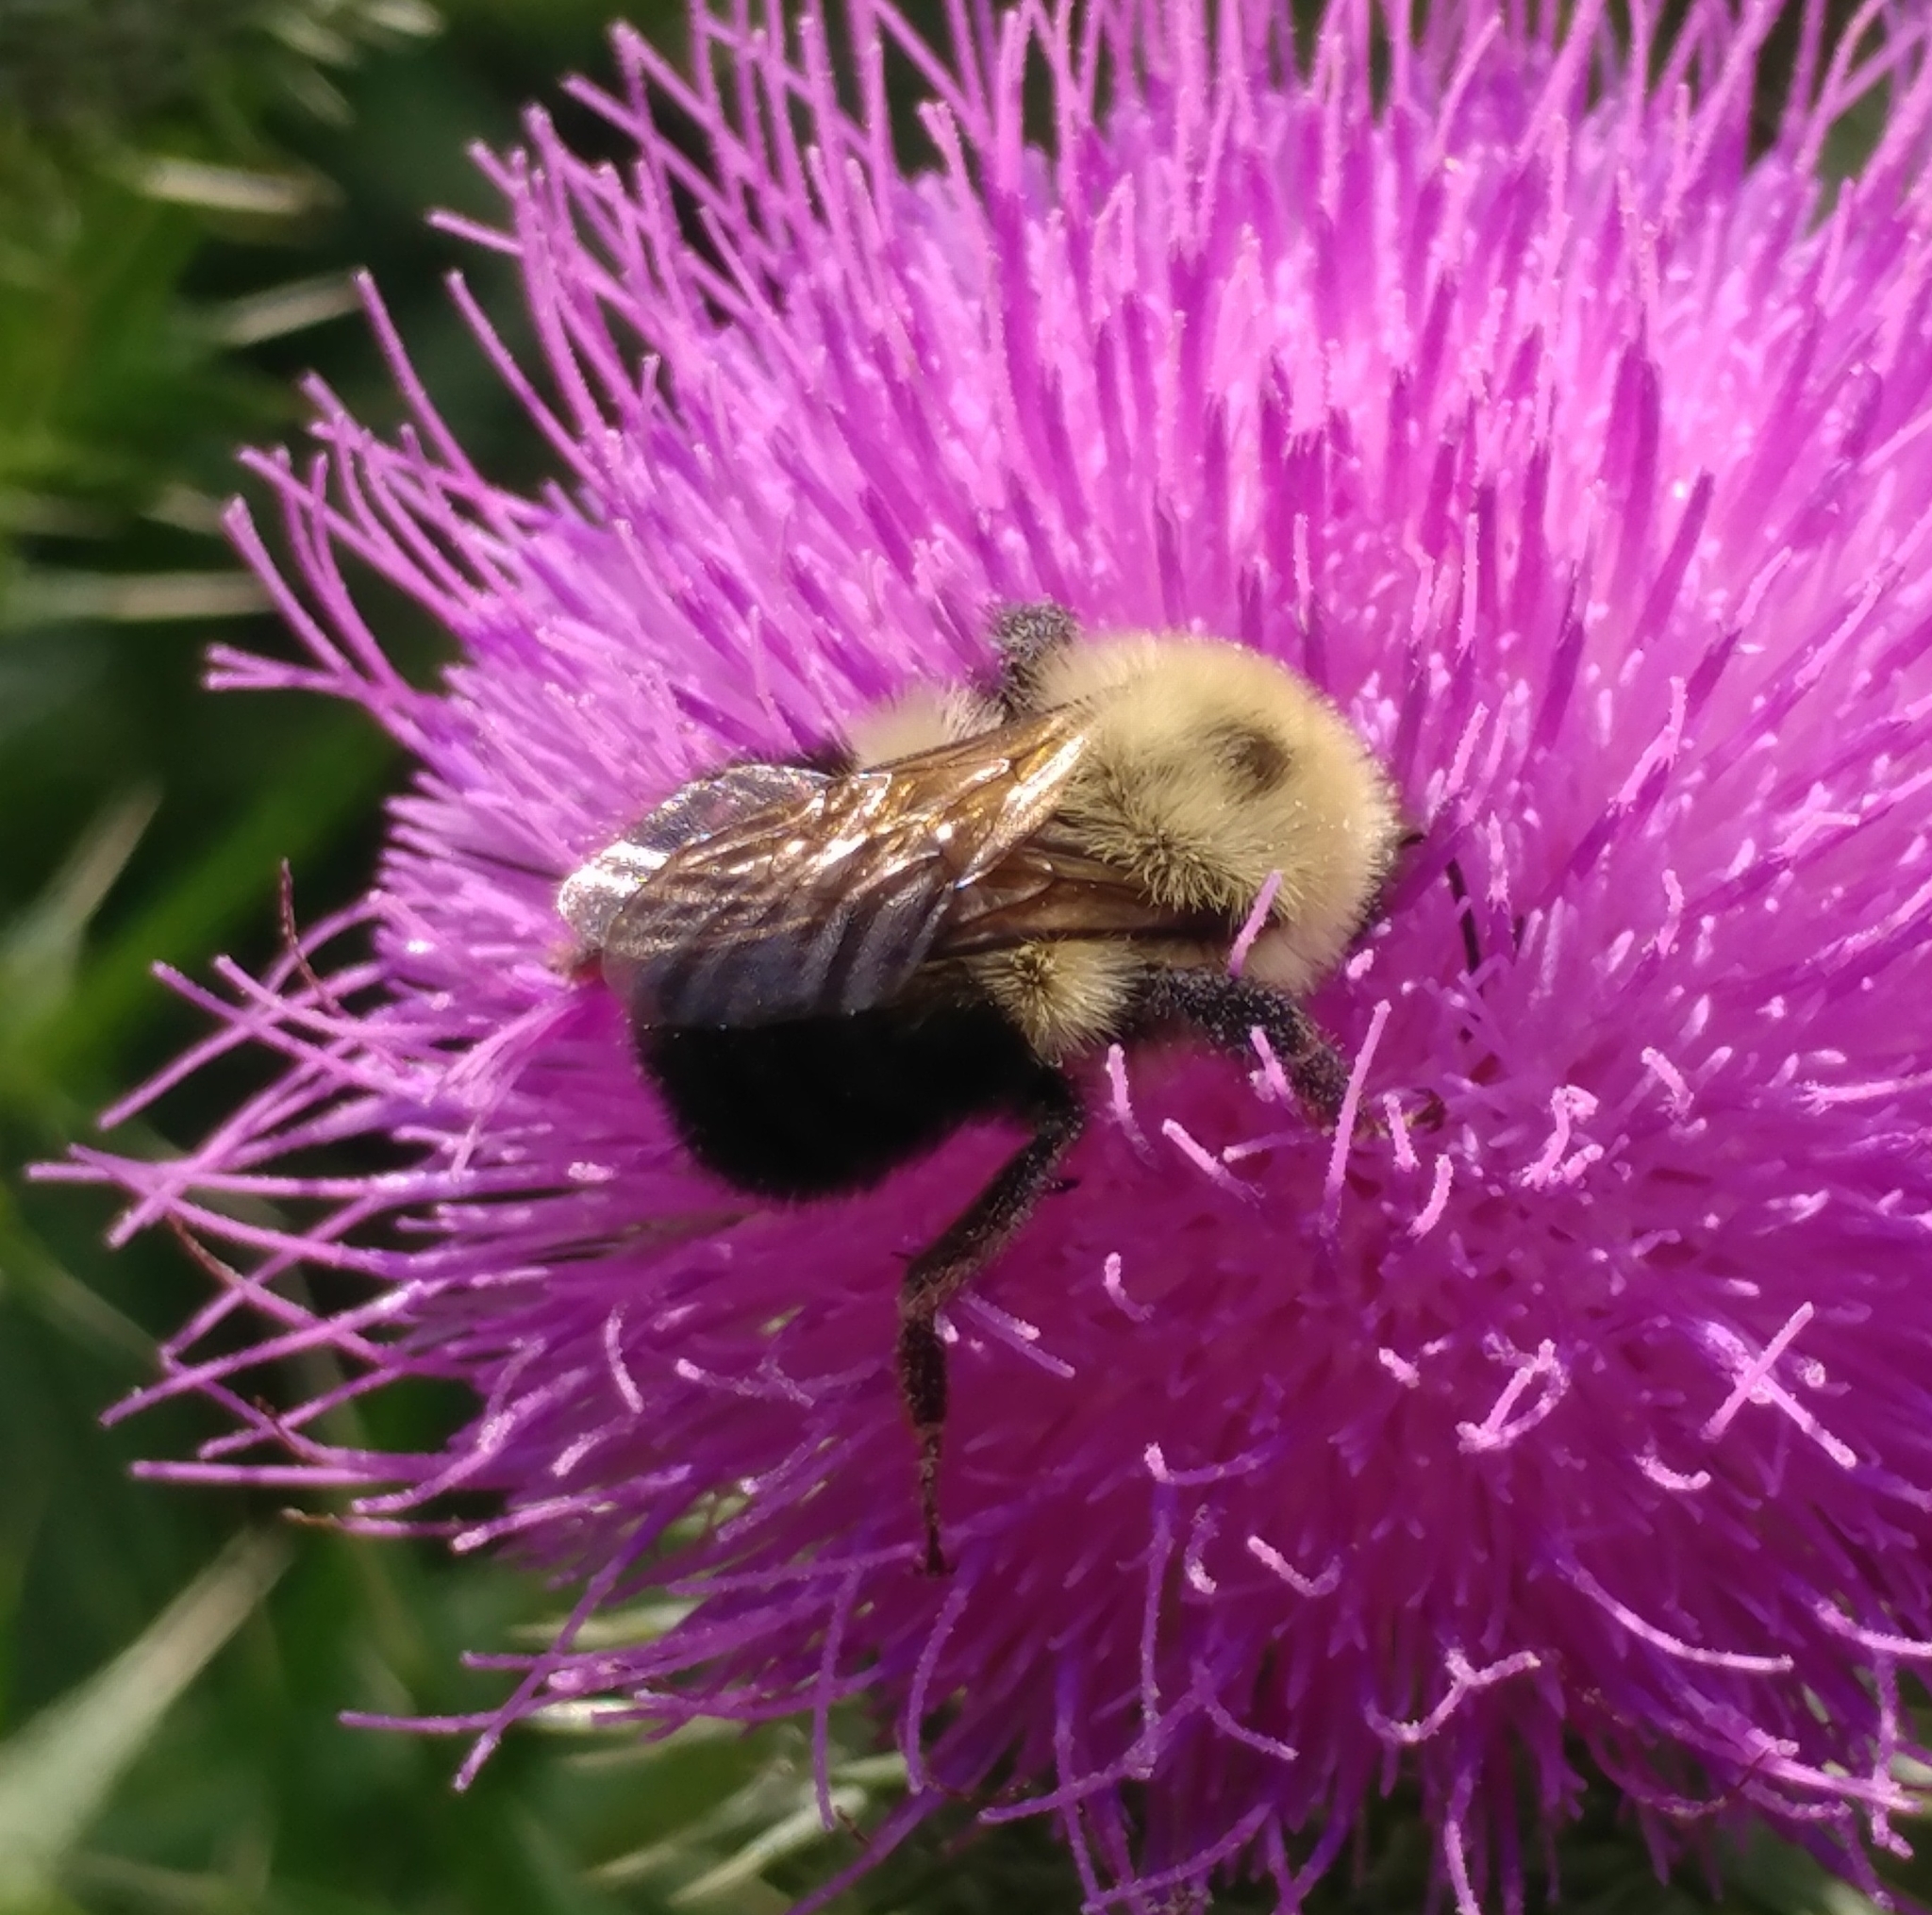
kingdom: Animalia
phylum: Arthropoda
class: Insecta
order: Hymenoptera
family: Apidae
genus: Bombus
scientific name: Bombus bimaculatus
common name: Two-spotted bumble bee
